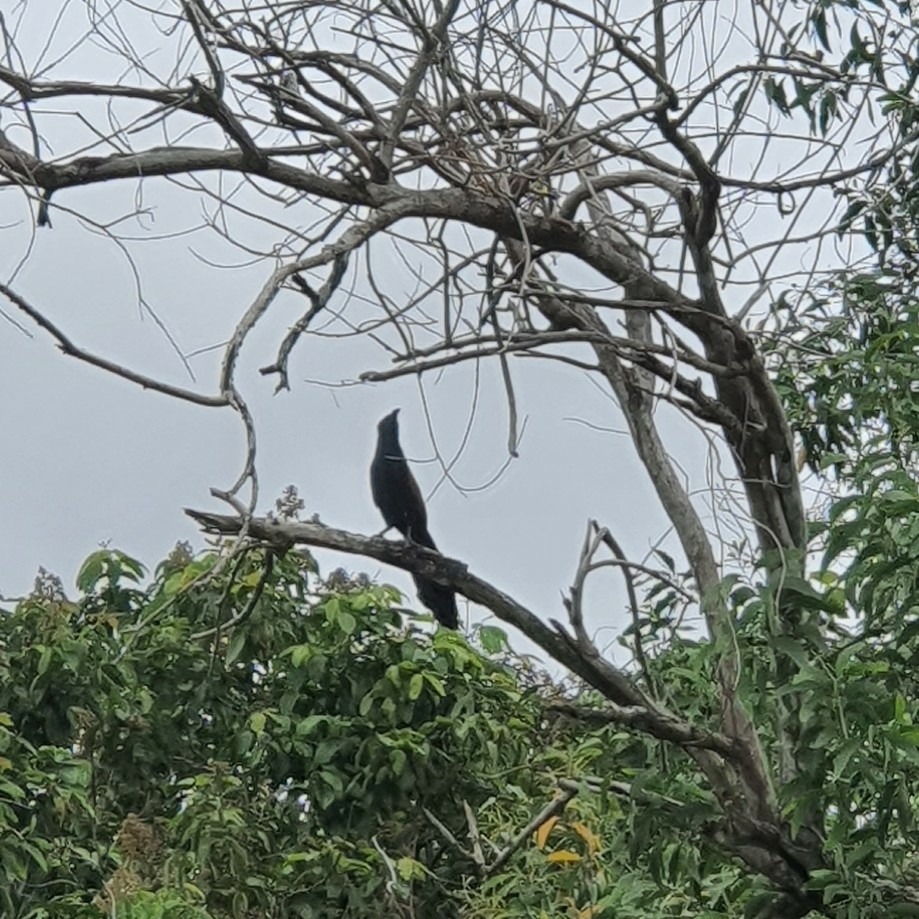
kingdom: Animalia
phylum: Chordata
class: Aves
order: Cuculiformes
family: Cuculidae
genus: Centropus
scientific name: Centropus sinensis
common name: Greater coucal
